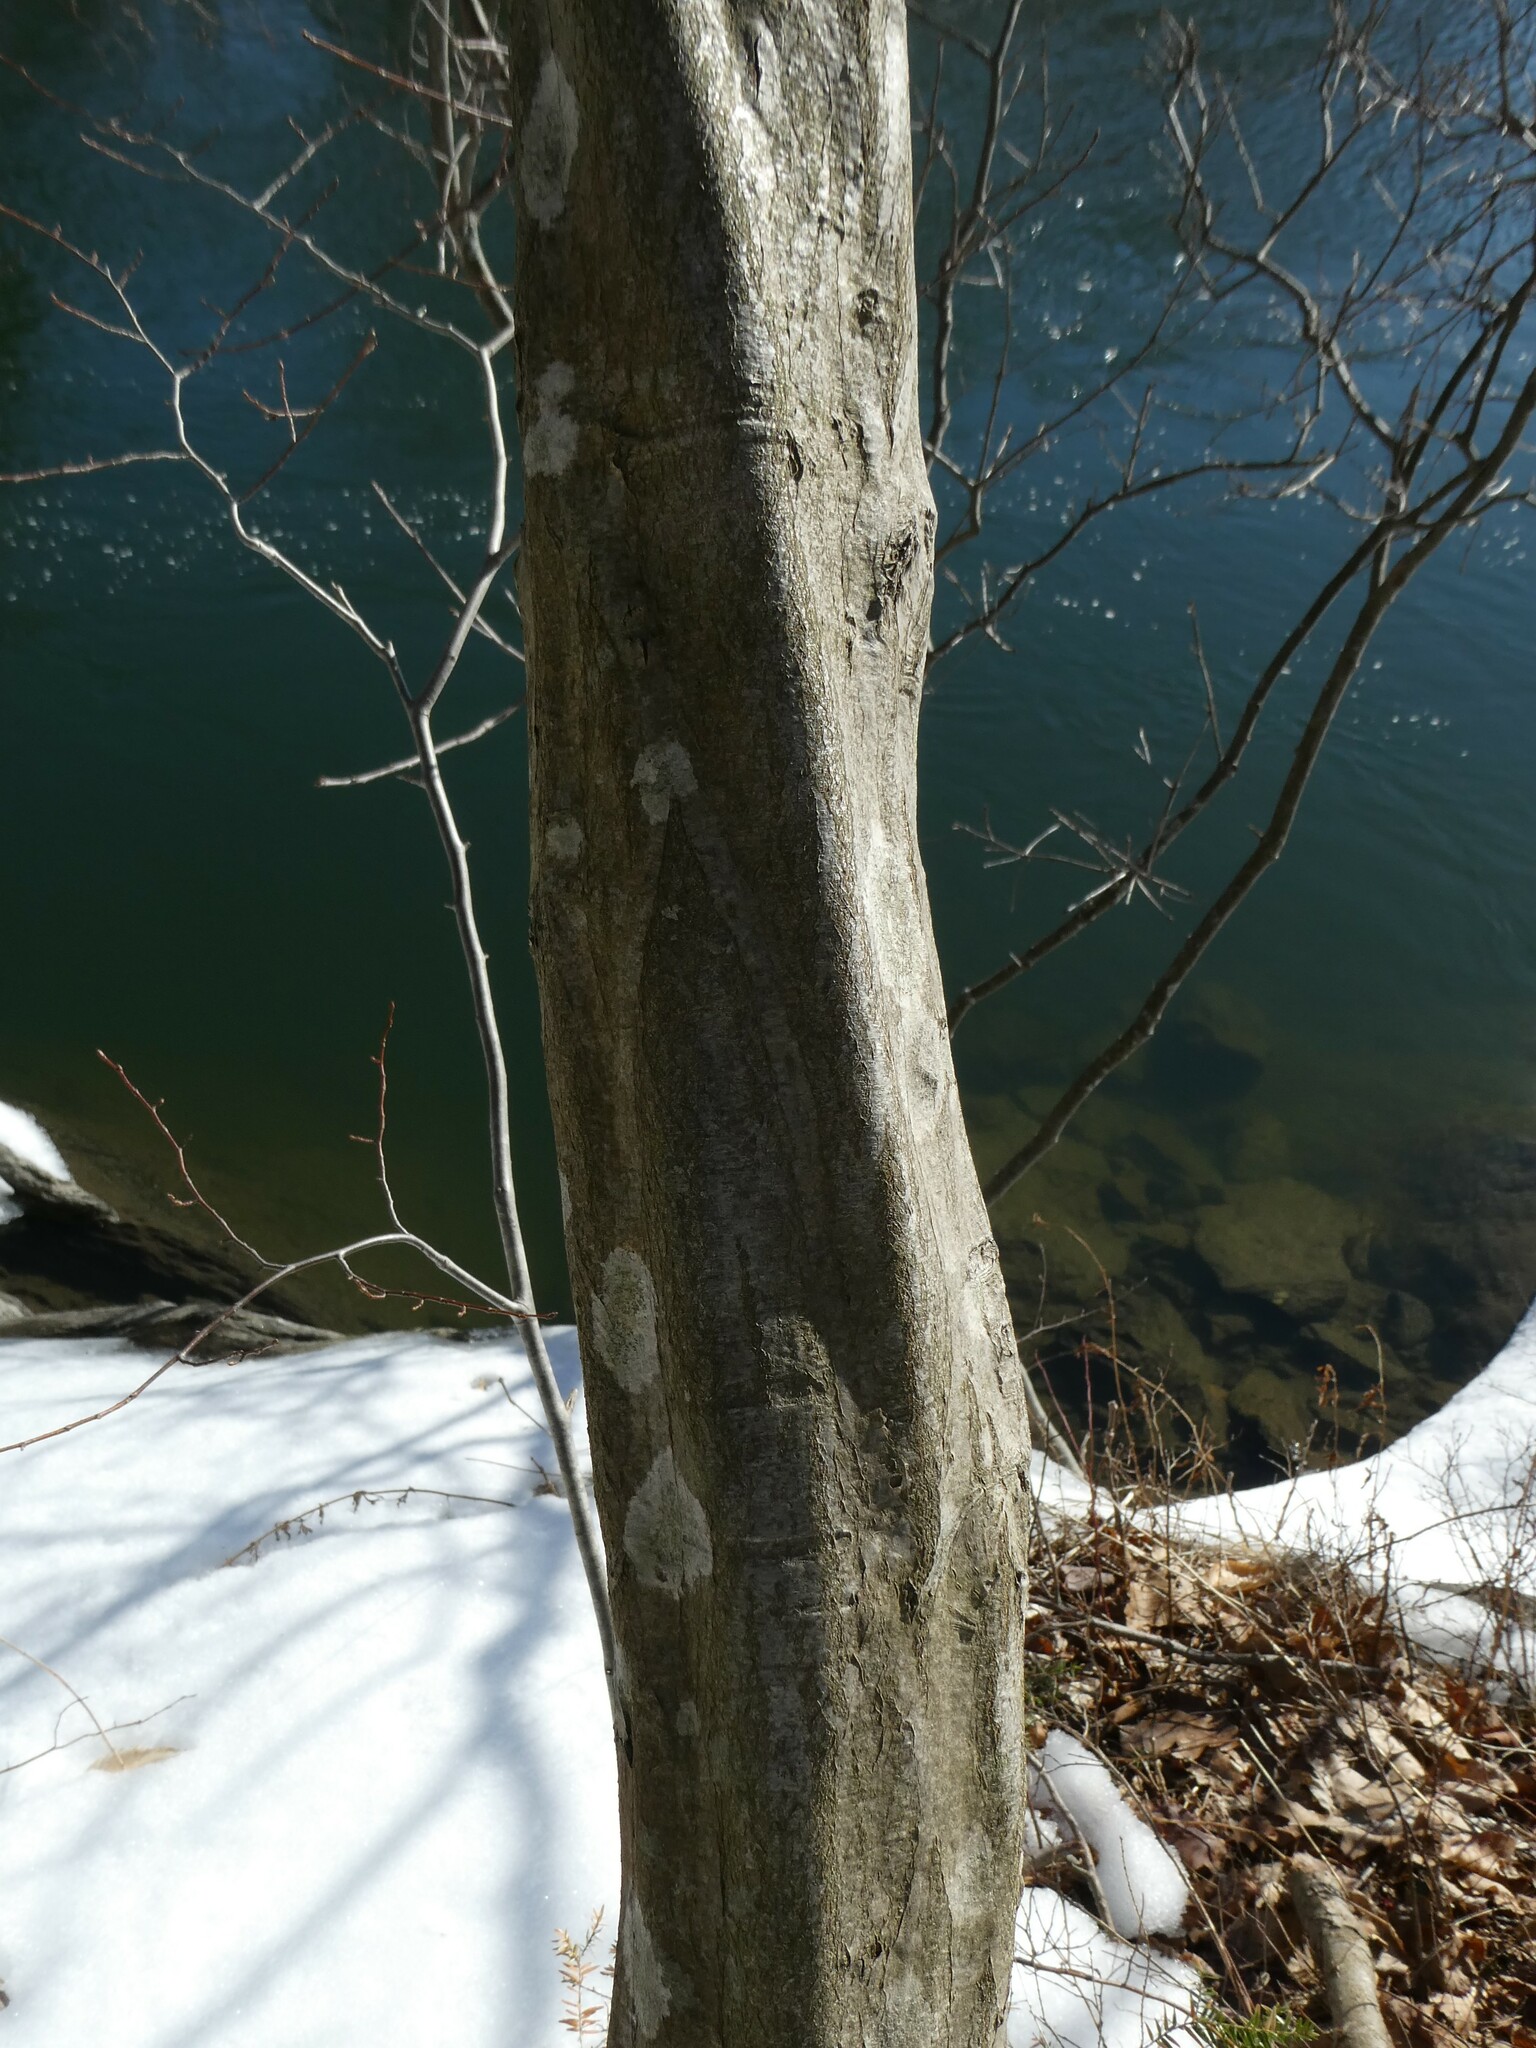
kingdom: Plantae
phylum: Tracheophyta
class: Magnoliopsida
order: Fagales
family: Betulaceae
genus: Carpinus
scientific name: Carpinus caroliniana
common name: American hornbeam
